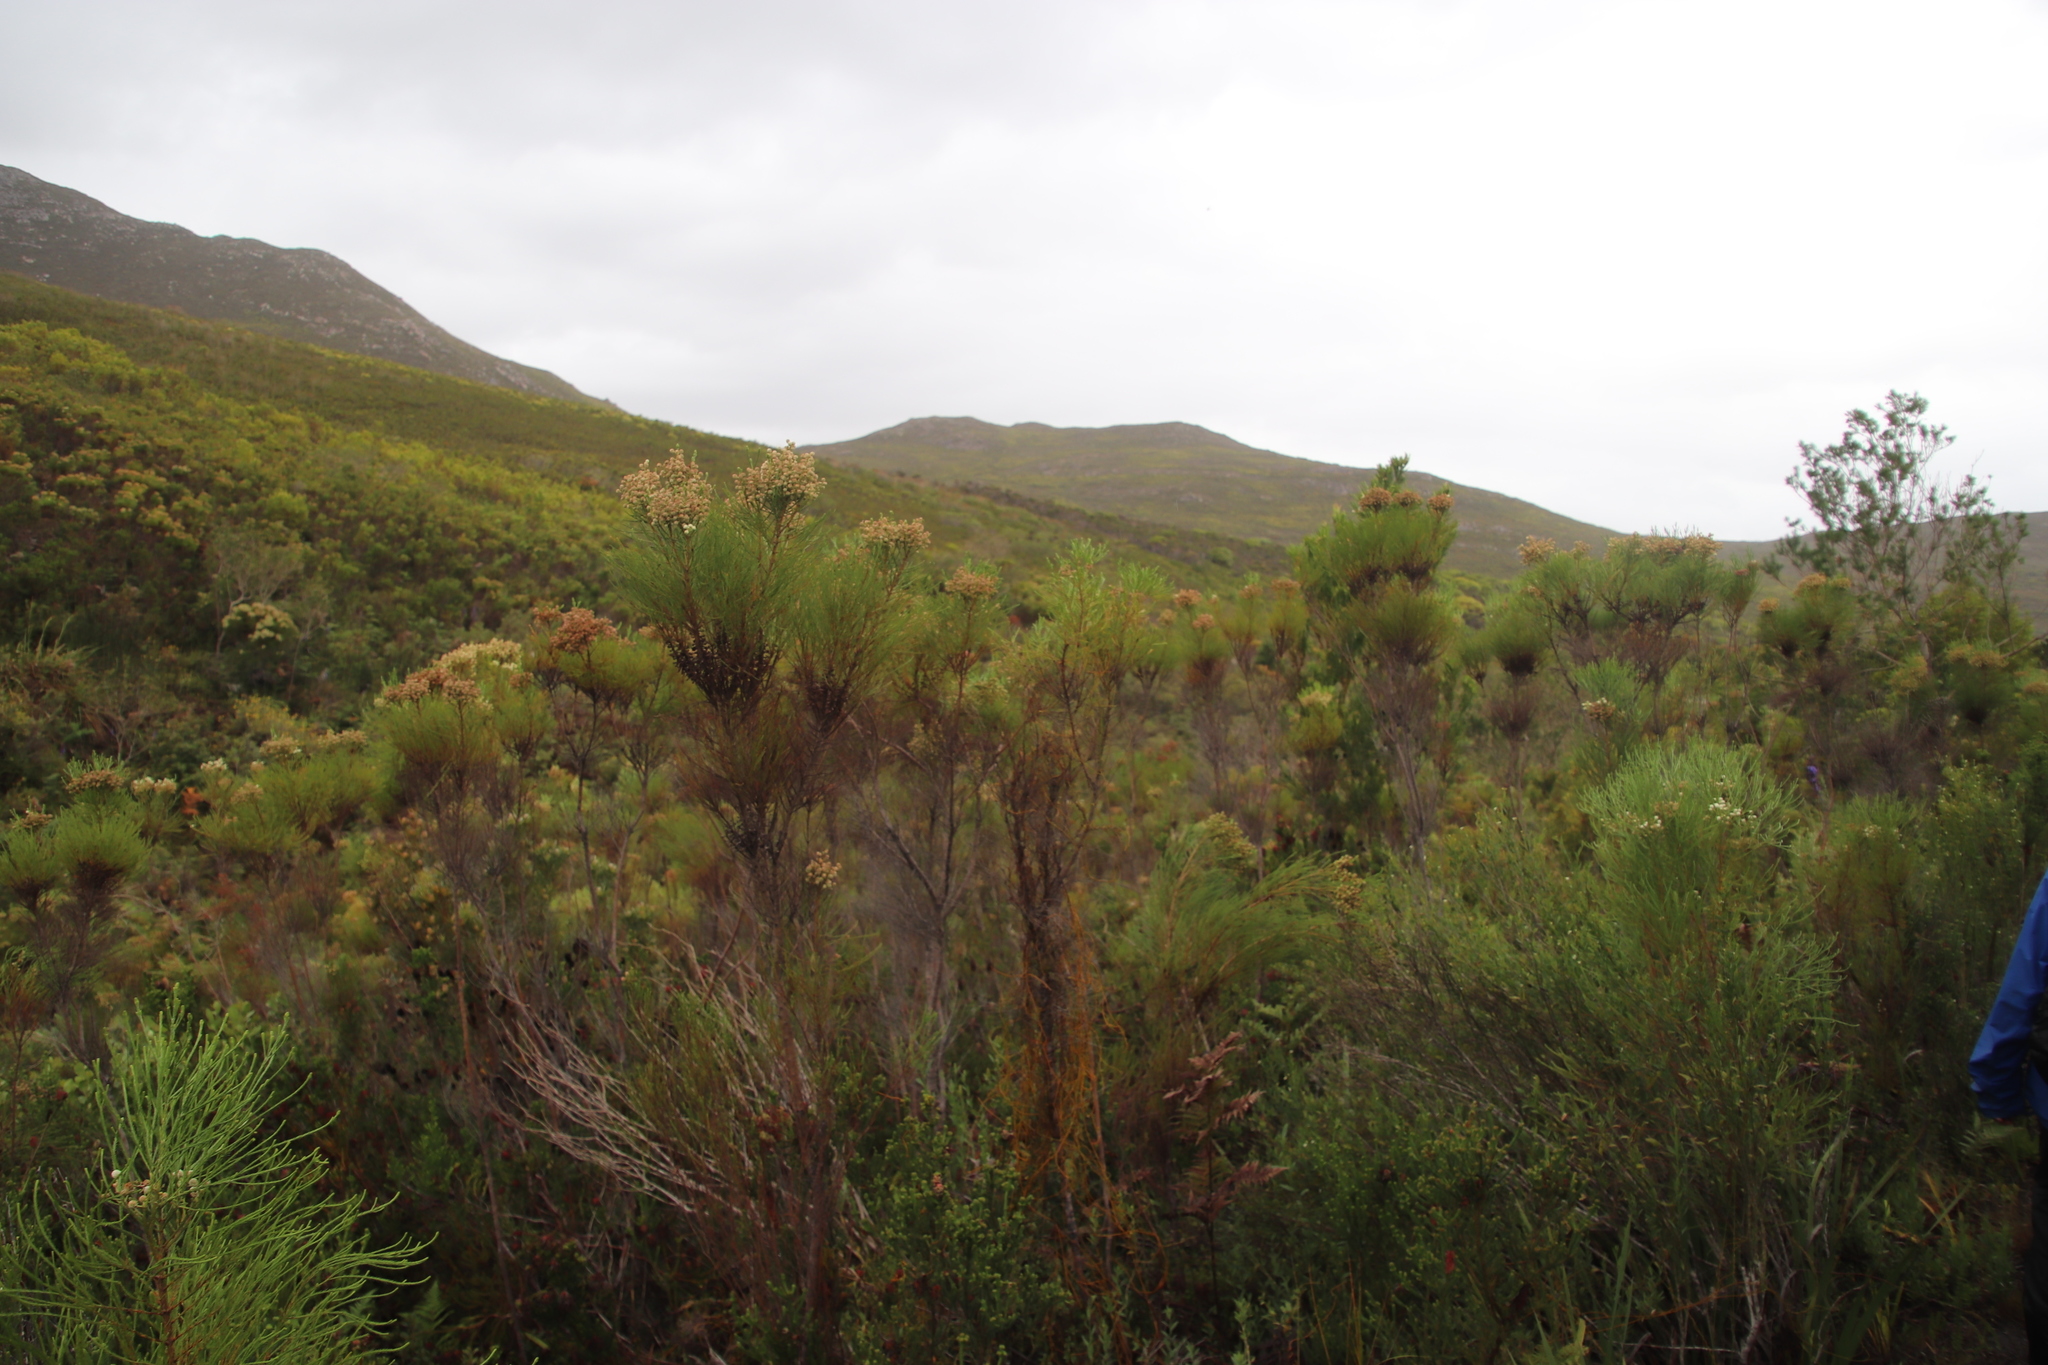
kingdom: Plantae
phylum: Tracheophyta
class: Magnoliopsida
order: Bruniales
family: Bruniaceae
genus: Berzelia
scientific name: Berzelia lanuginosa
